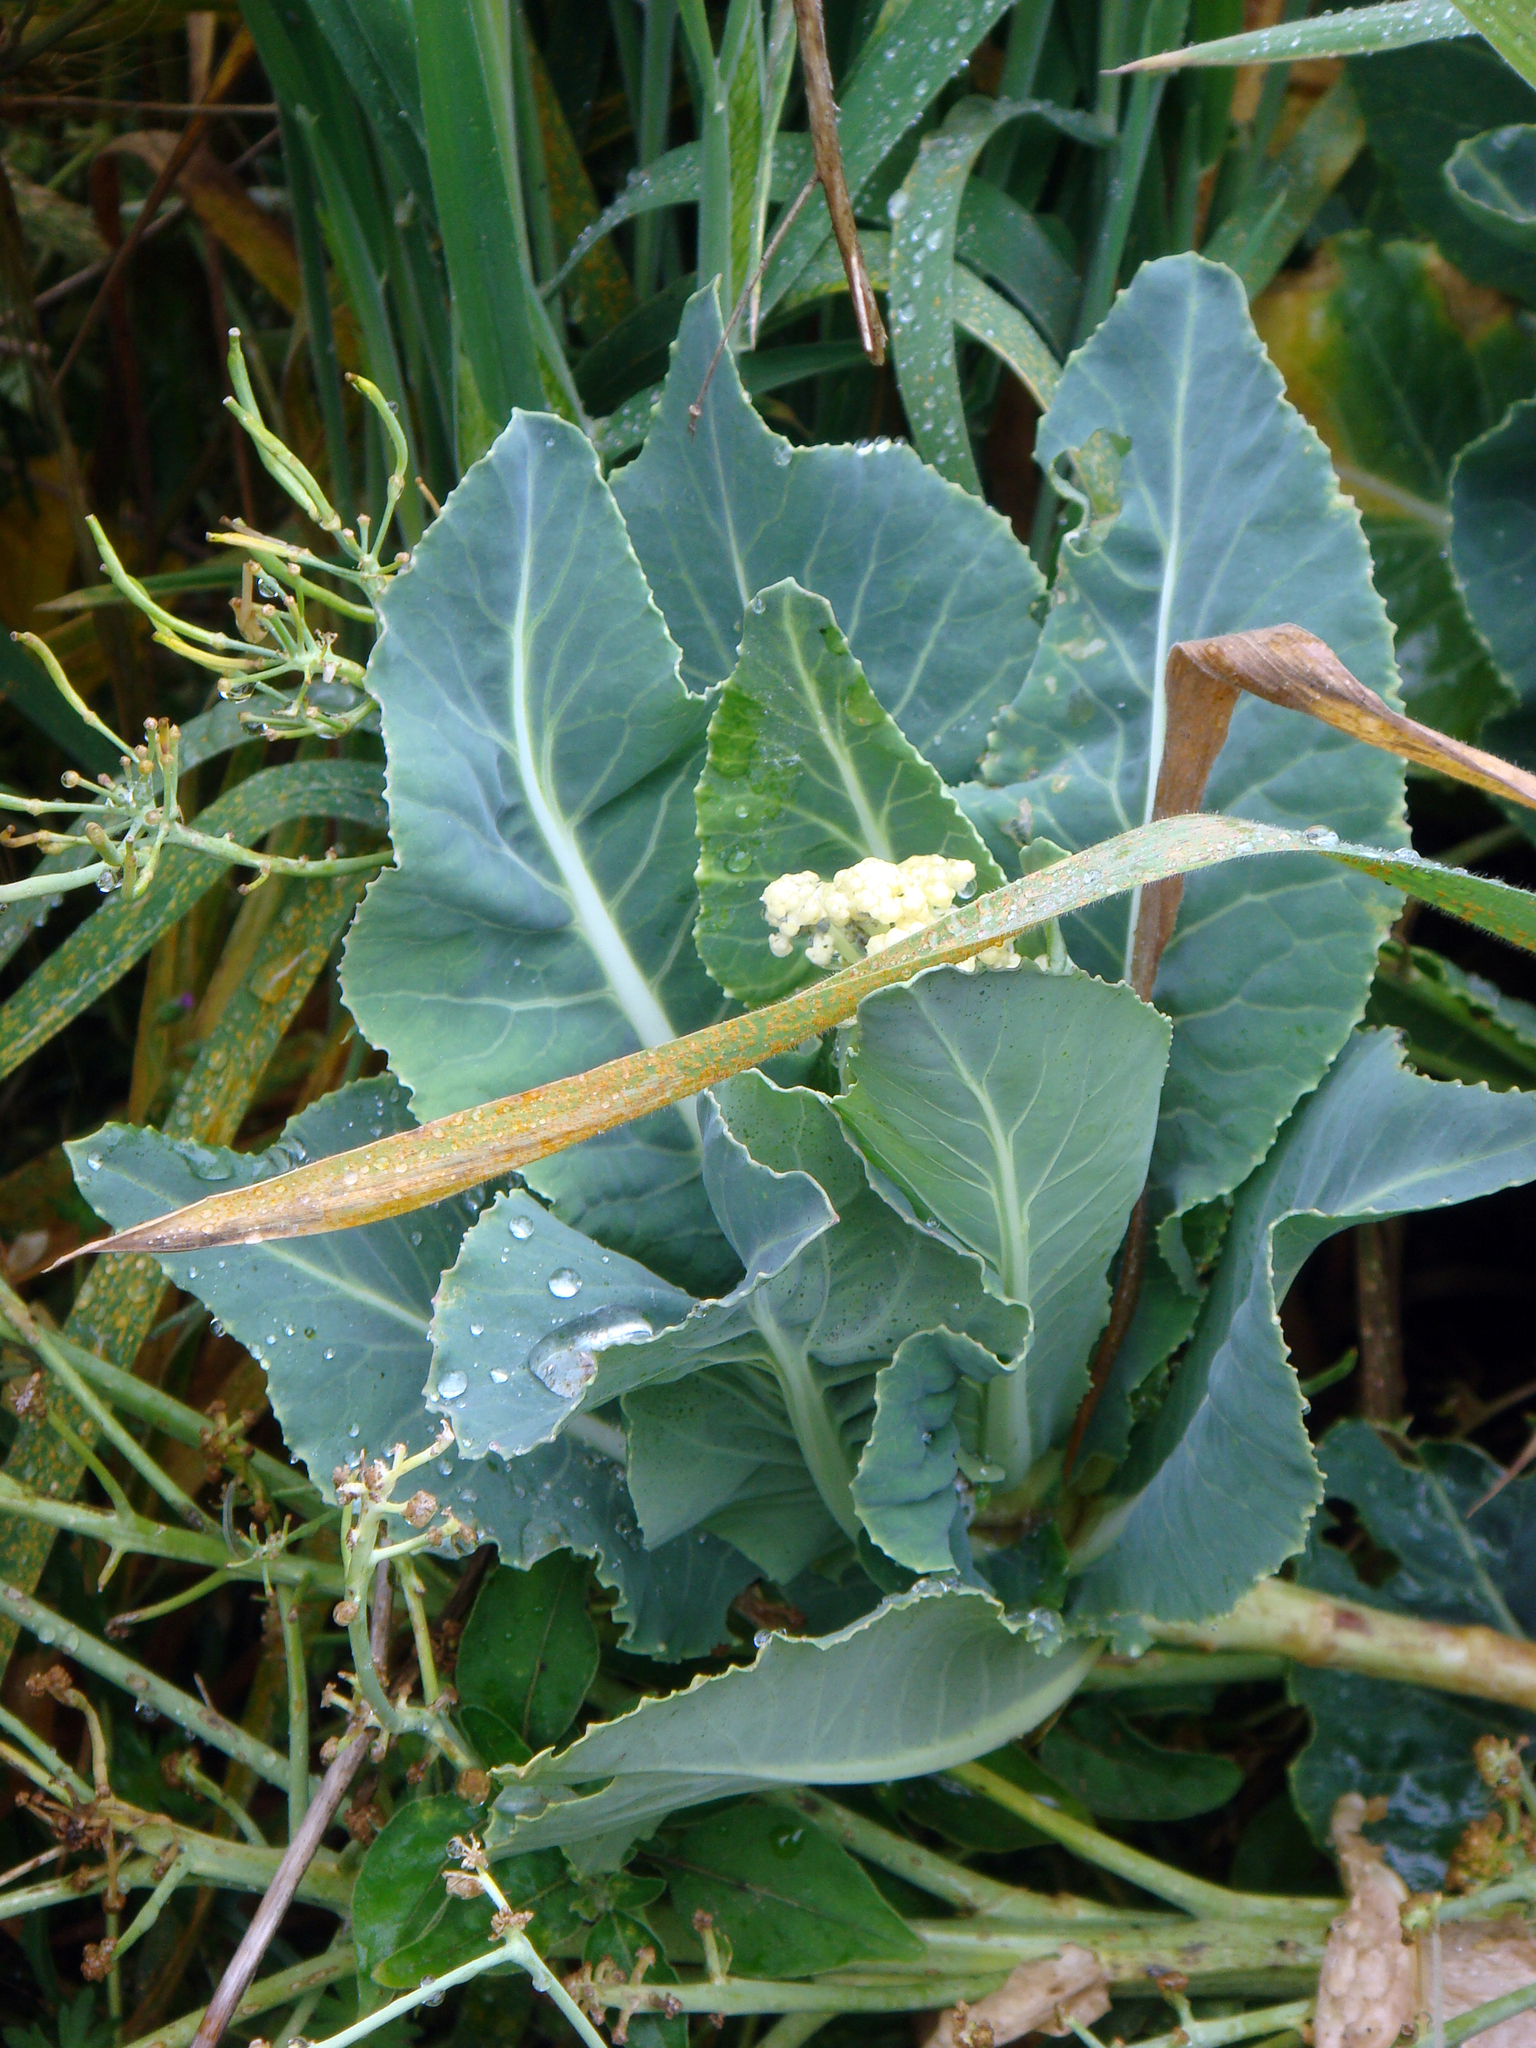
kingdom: Plantae
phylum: Tracheophyta
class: Magnoliopsida
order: Brassicales
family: Brassicaceae
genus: Brassica
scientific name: Brassica cretica
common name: Mustard
